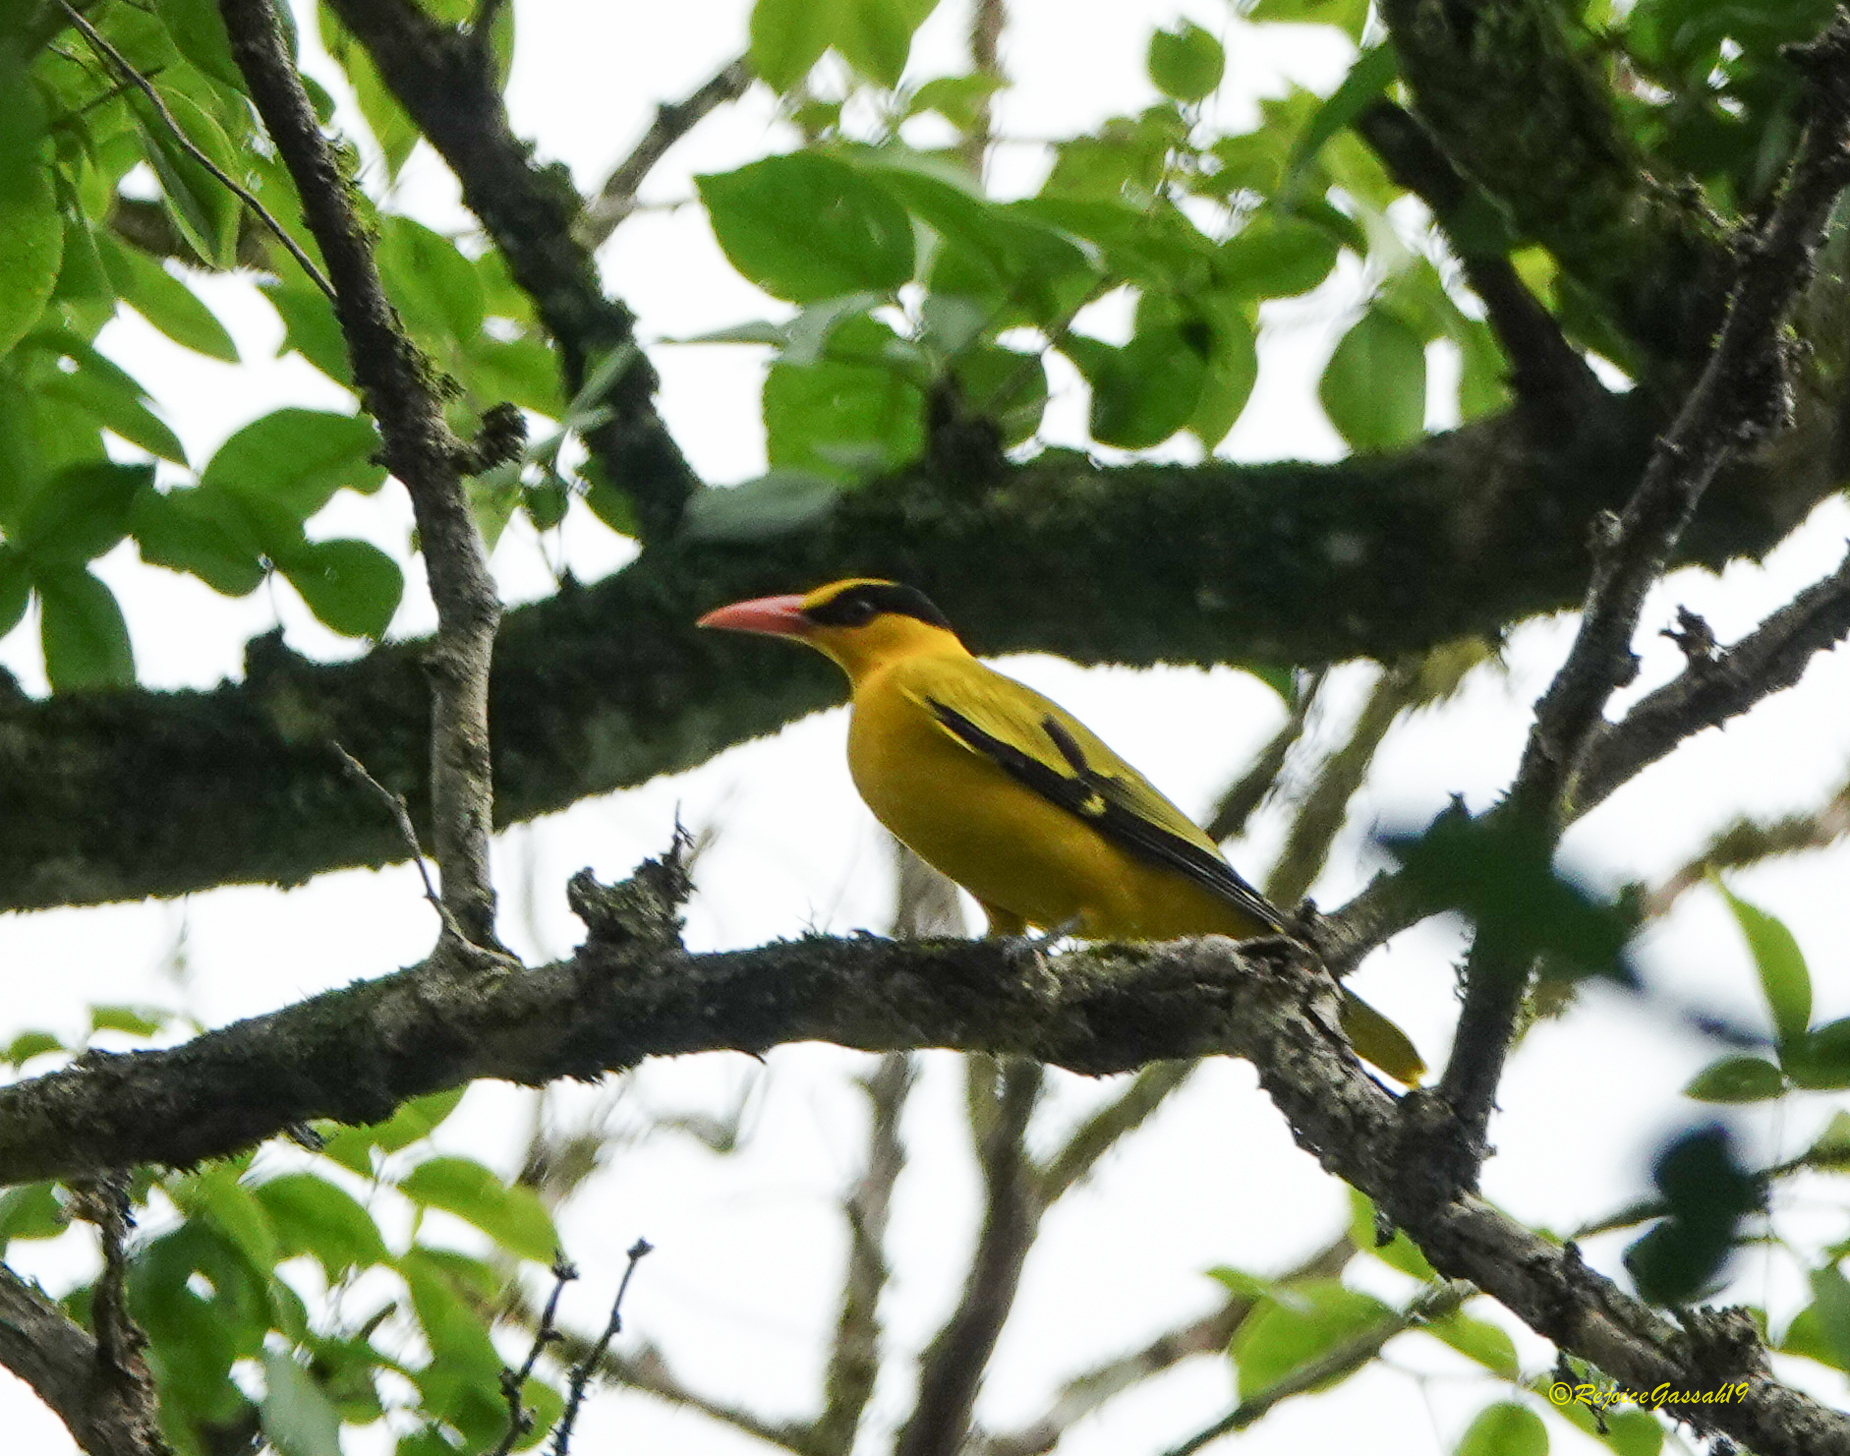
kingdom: Animalia
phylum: Chordata
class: Aves
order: Passeriformes
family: Oriolidae
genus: Oriolus
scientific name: Oriolus chinensis
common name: Black-naped oriole
